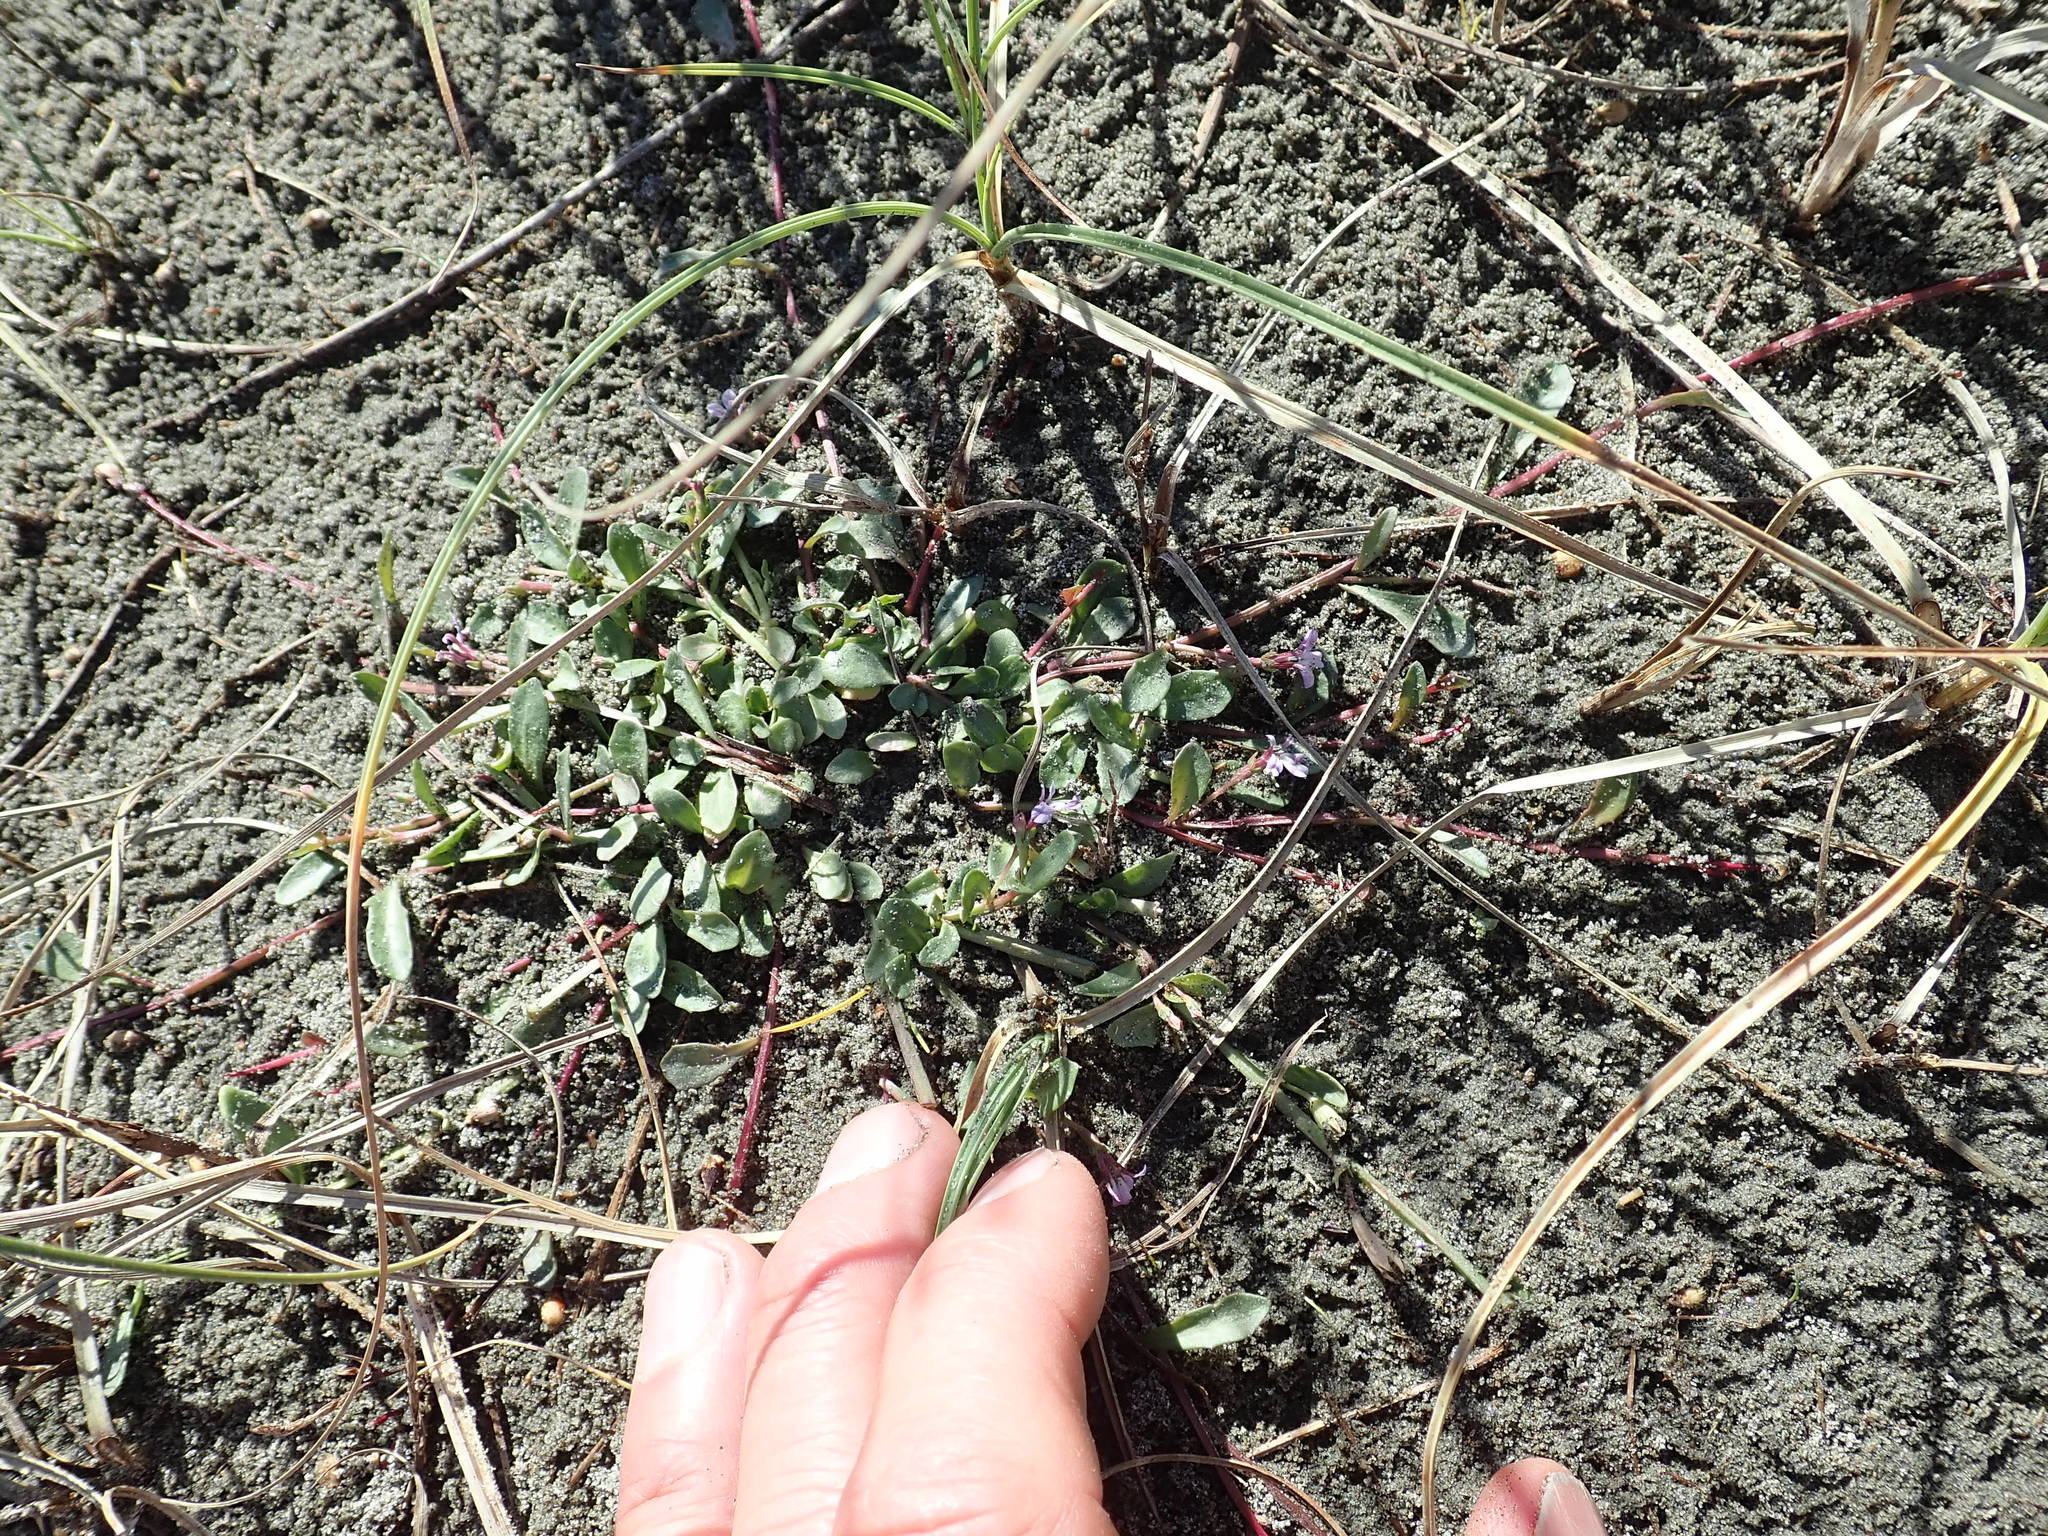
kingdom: Plantae
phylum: Tracheophyta
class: Magnoliopsida
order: Asterales
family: Campanulaceae
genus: Lobelia
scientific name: Lobelia anceps
